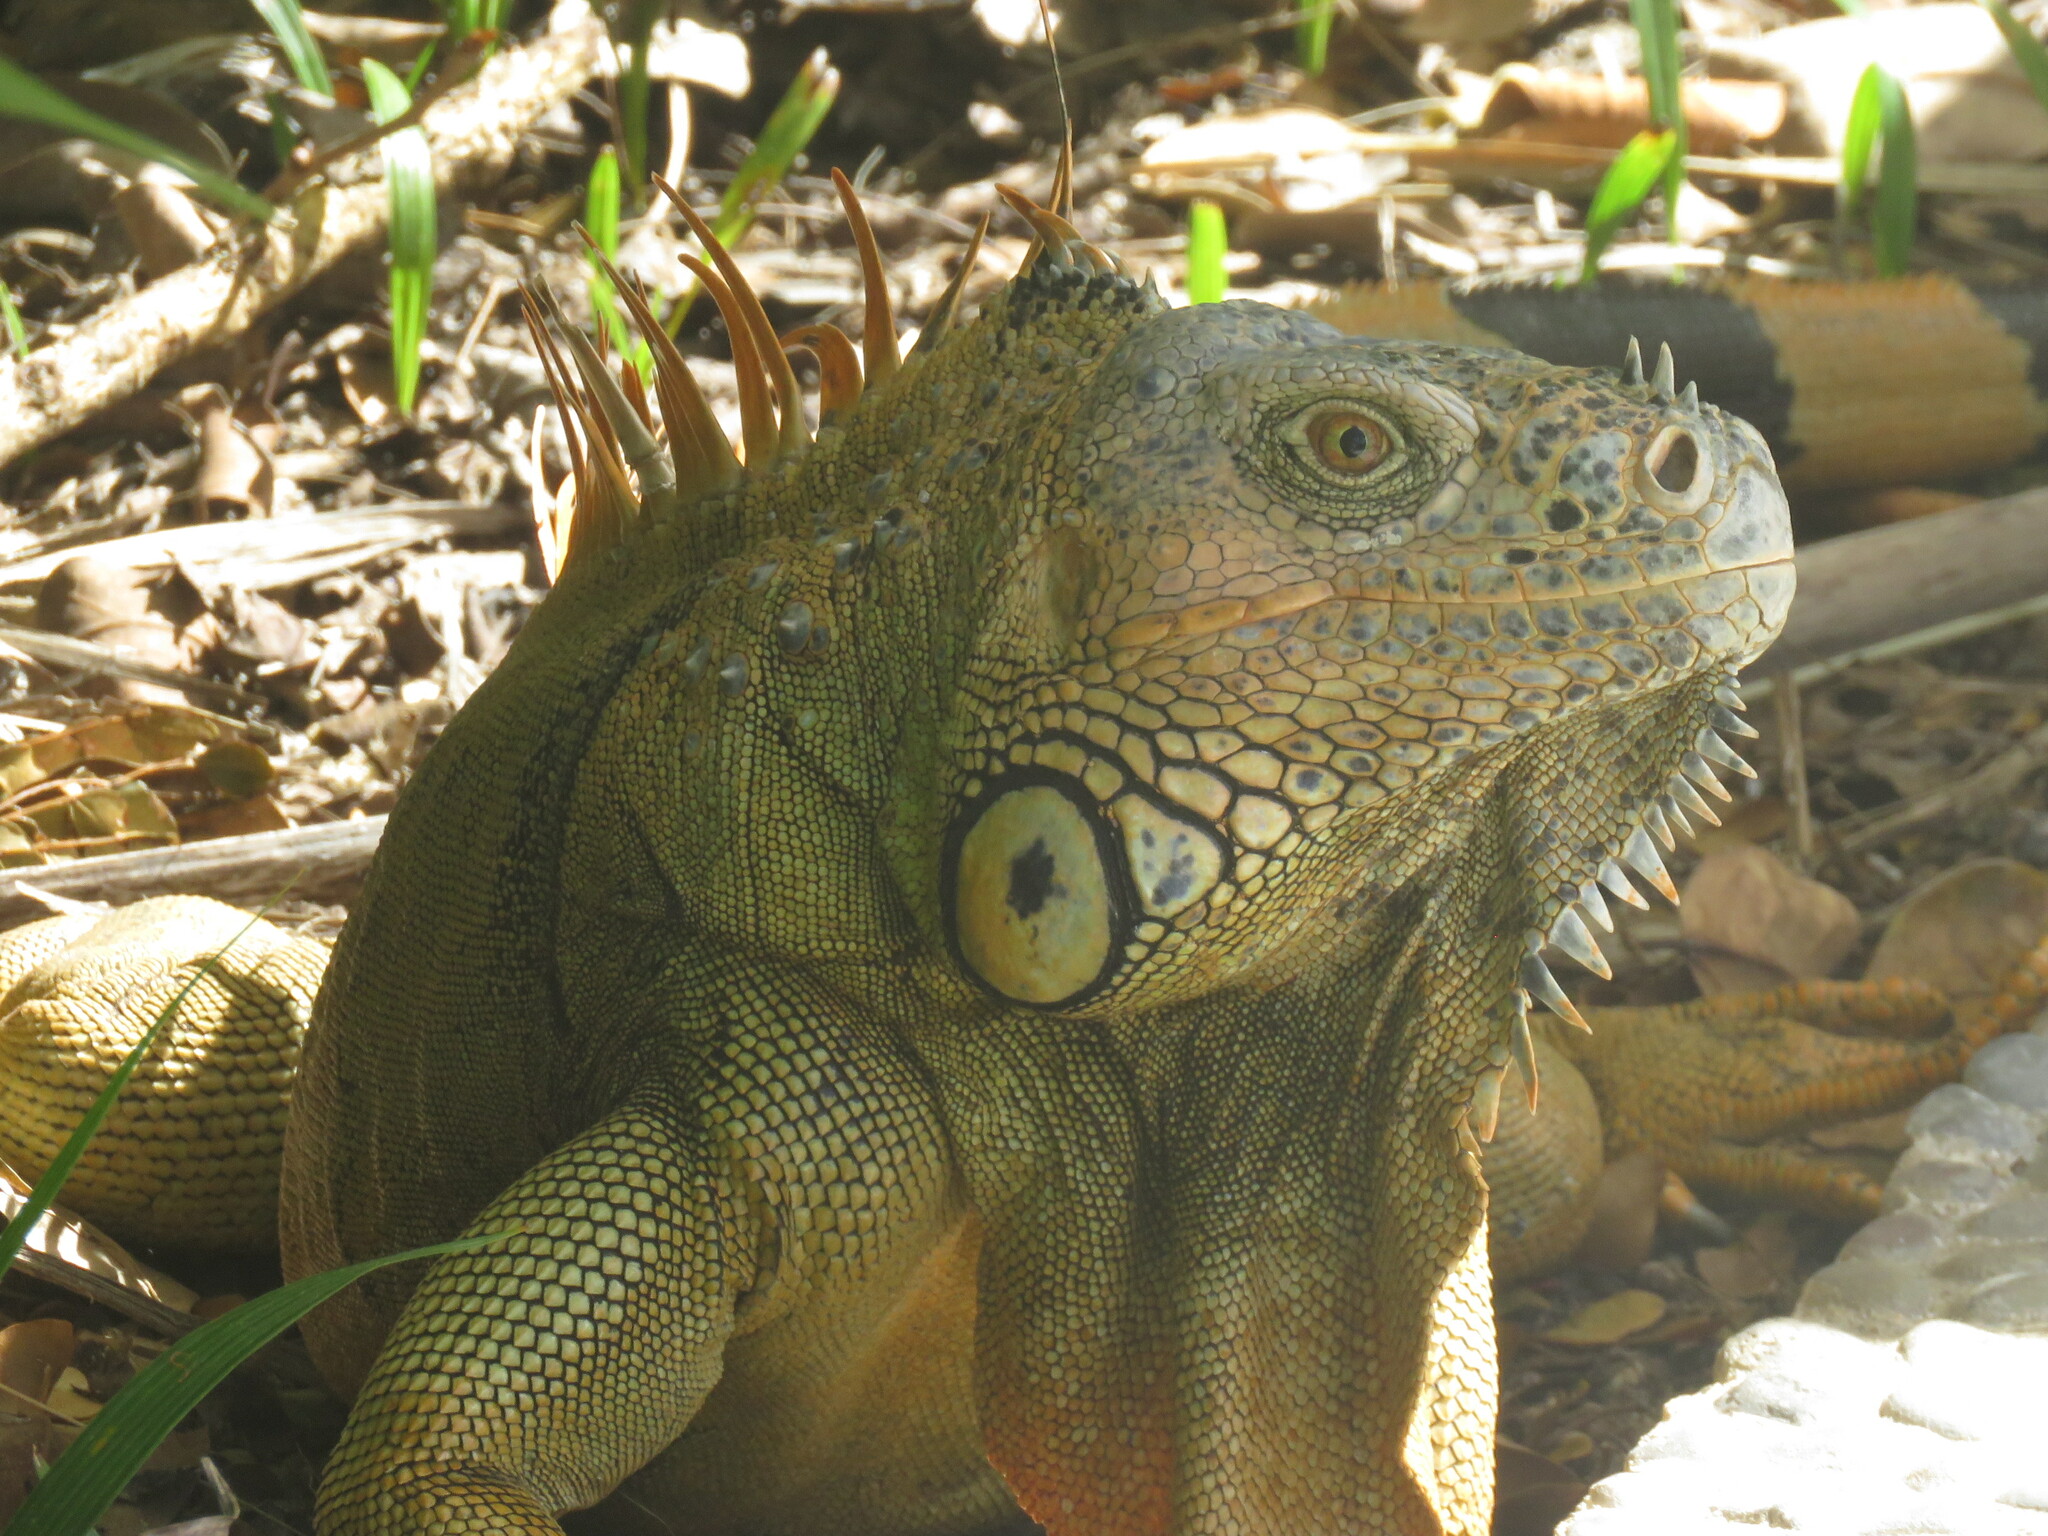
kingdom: Animalia
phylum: Chordata
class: Squamata
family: Iguanidae
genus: Iguana
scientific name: Iguana iguana
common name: Green iguana
